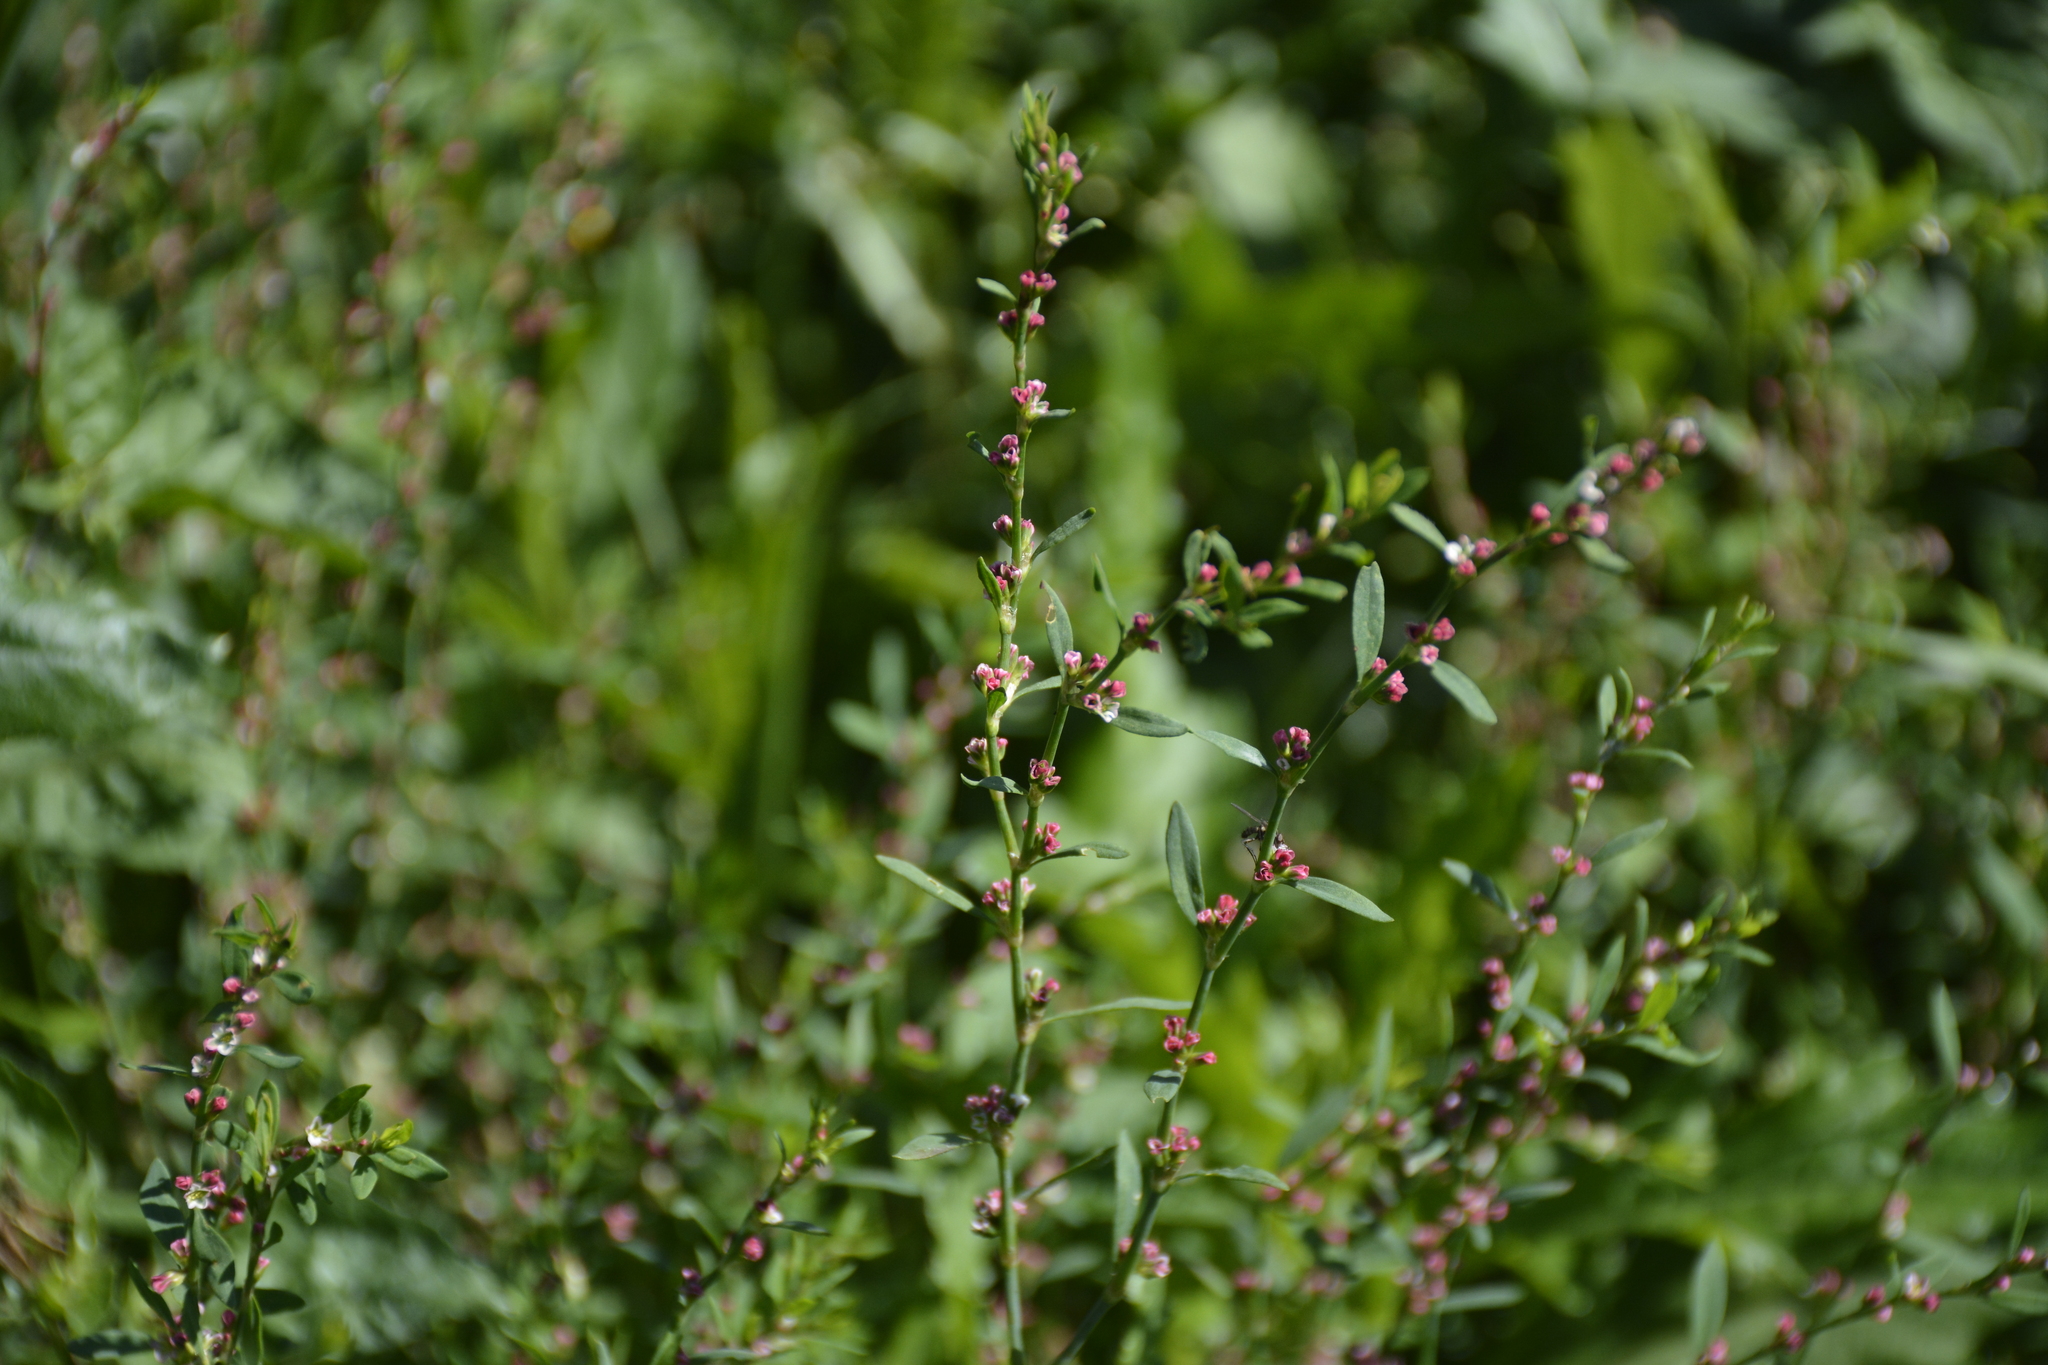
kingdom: Plantae
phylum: Tracheophyta
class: Magnoliopsida
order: Caryophyllales
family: Polygonaceae
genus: Polygonum
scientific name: Polygonum
